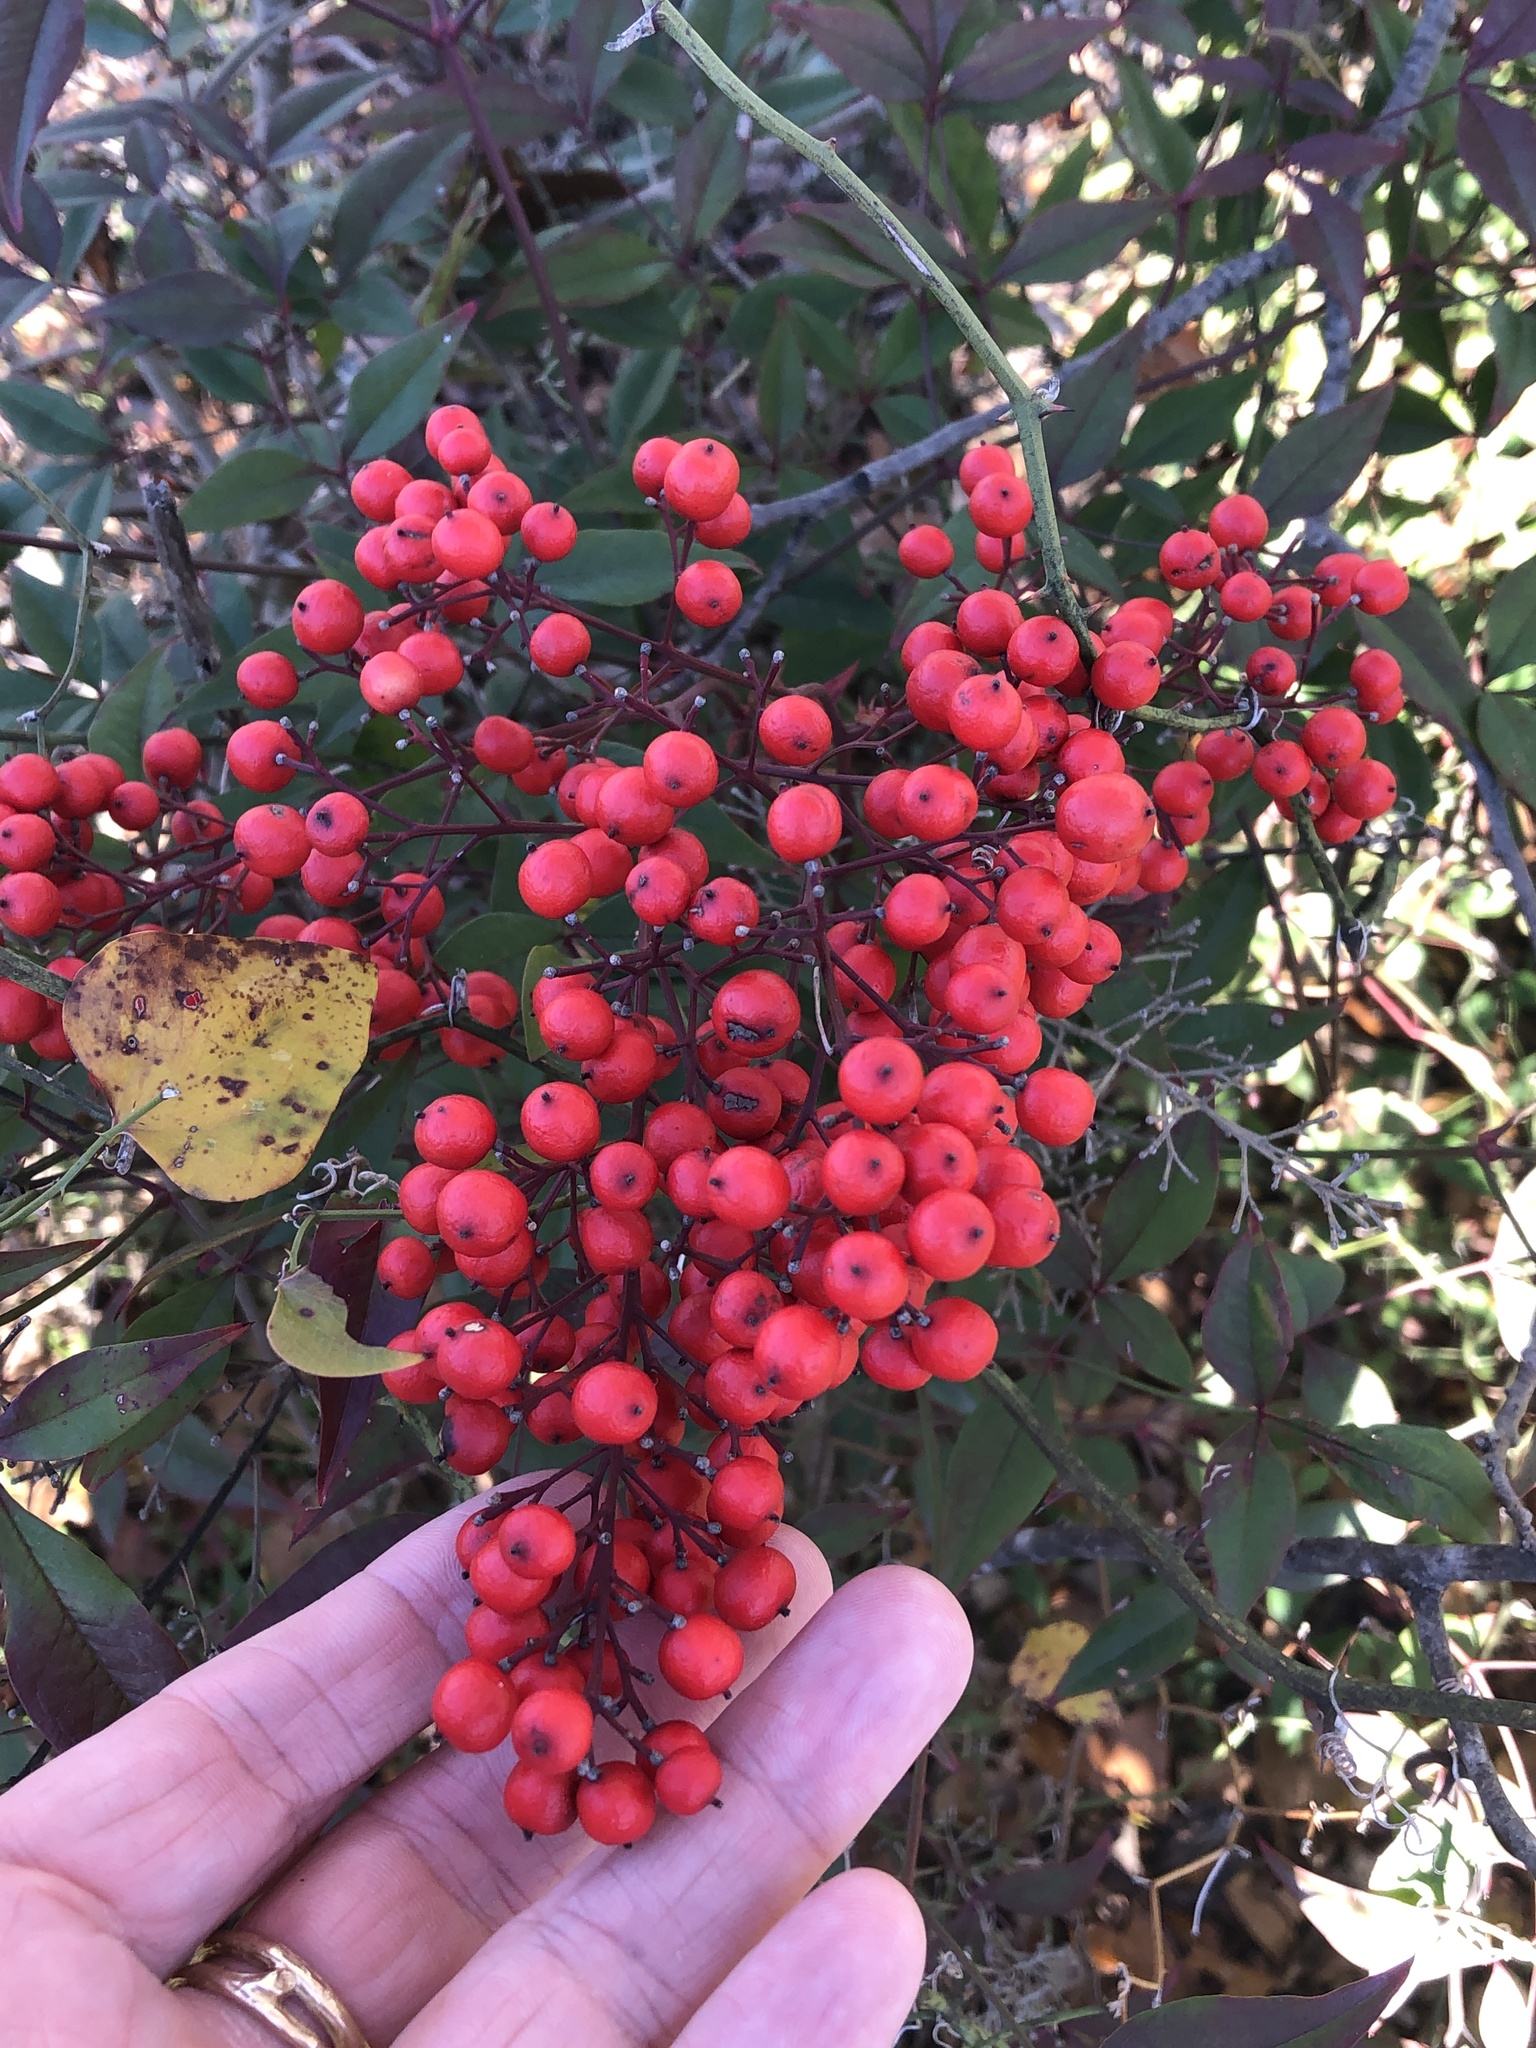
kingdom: Plantae
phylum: Tracheophyta
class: Magnoliopsida
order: Ranunculales
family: Berberidaceae
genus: Nandina
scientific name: Nandina domestica
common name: Sacred bamboo
